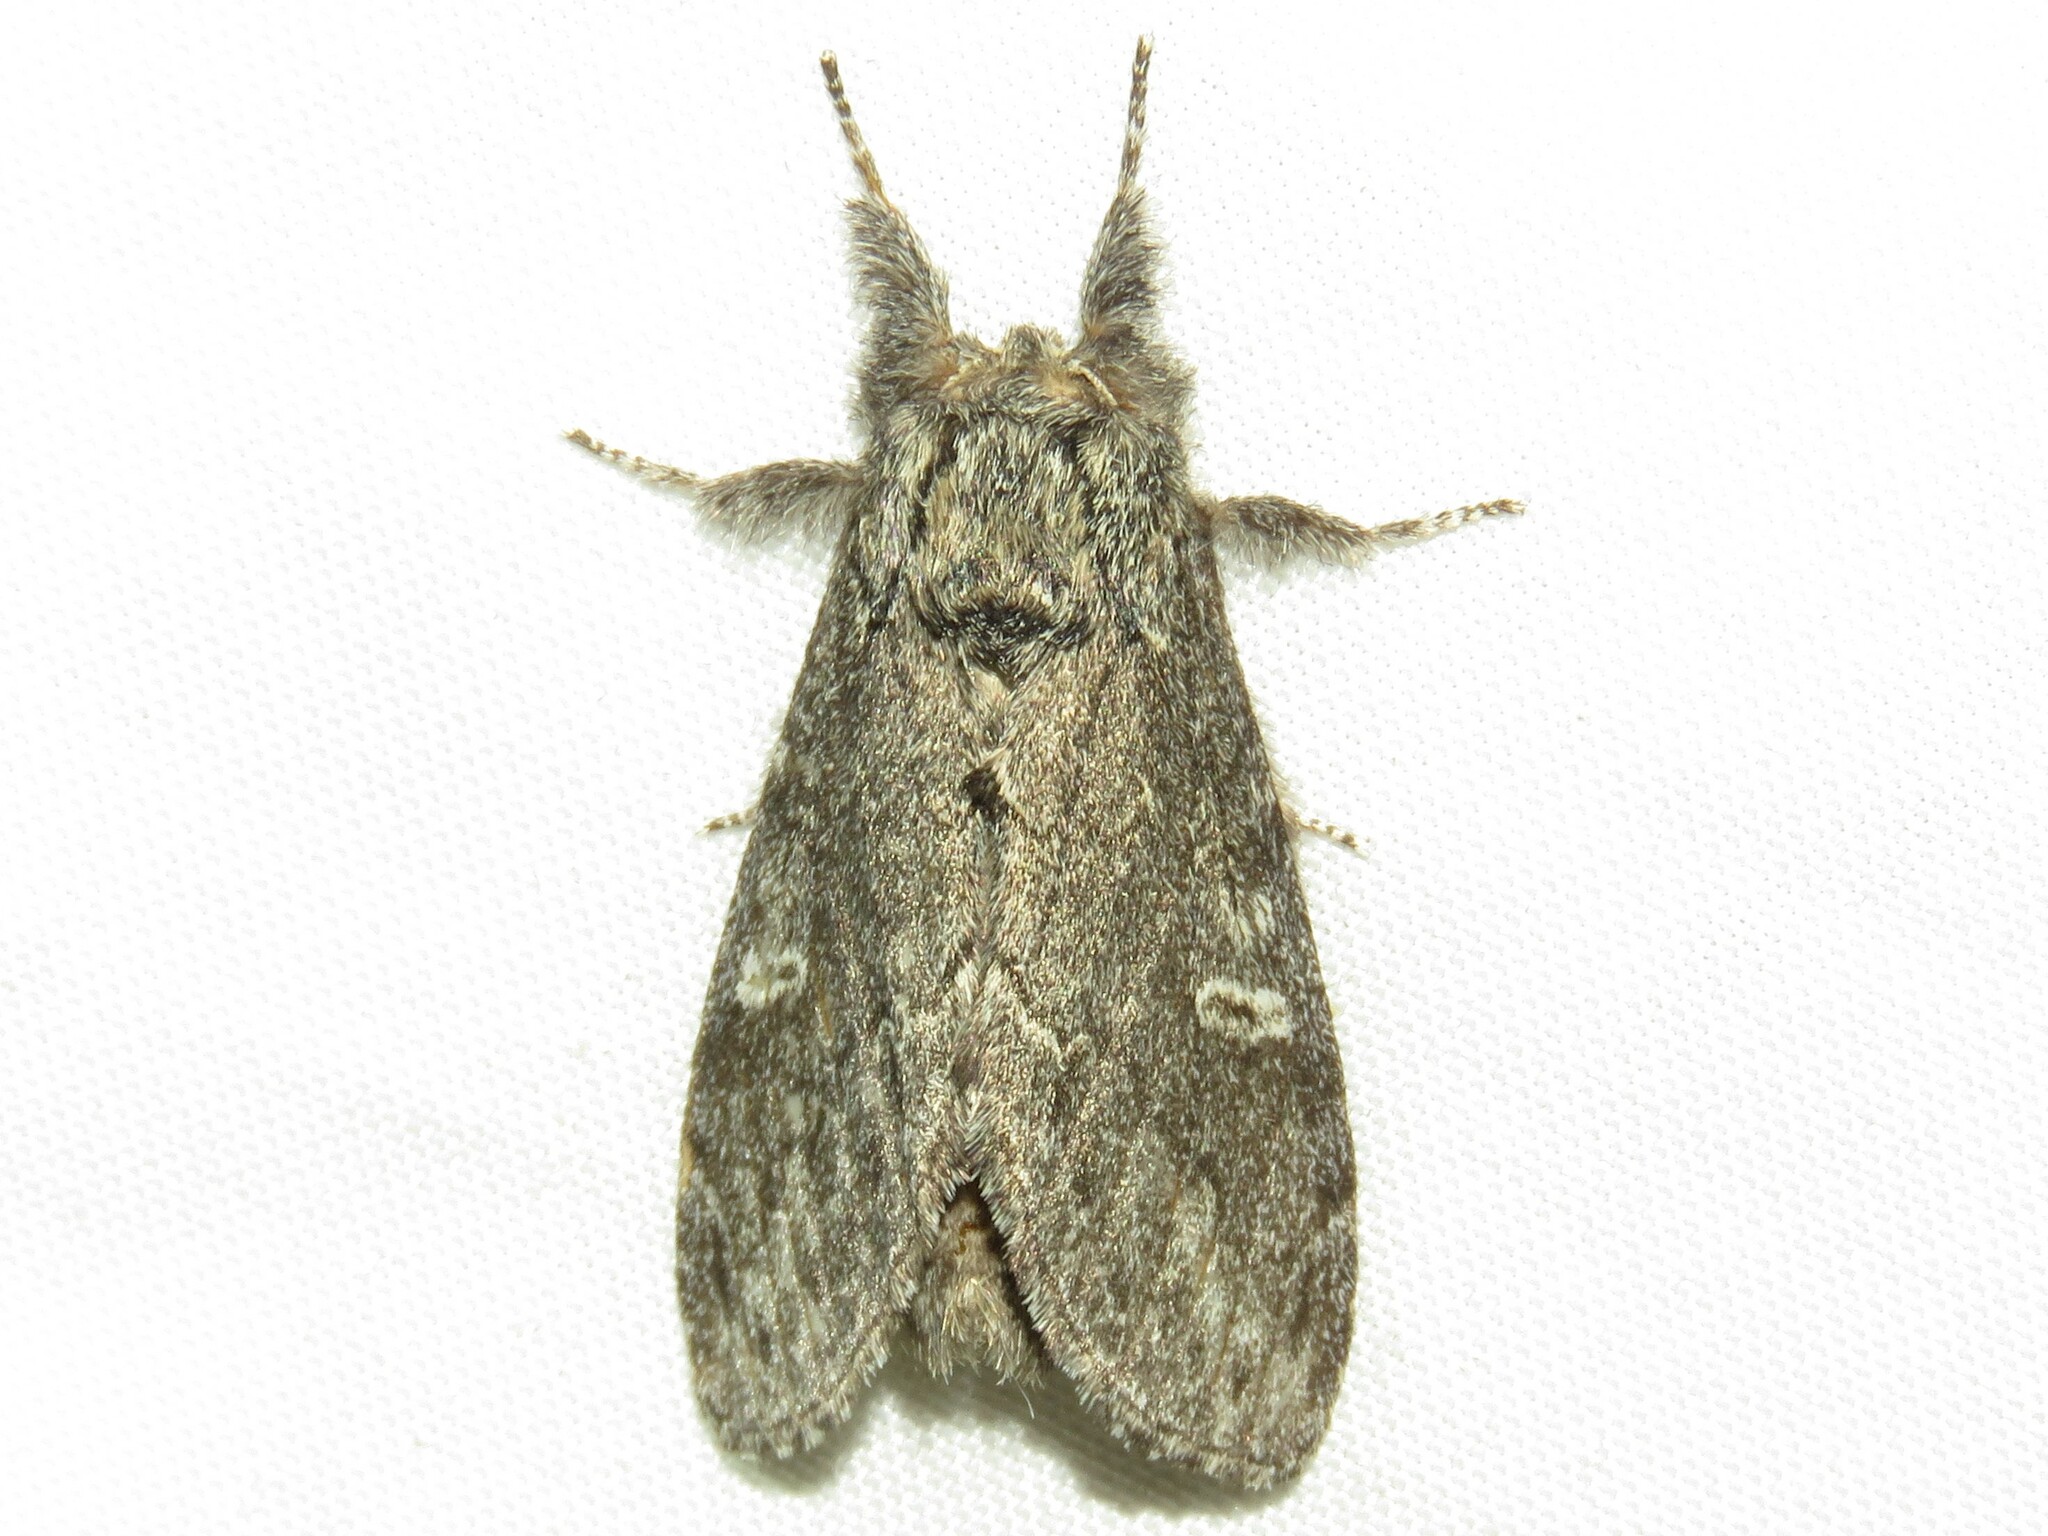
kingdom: Animalia
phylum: Arthropoda
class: Insecta
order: Lepidoptera
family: Notodontidae
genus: Notodonta
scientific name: Notodonta torva
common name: Large dark prominent
